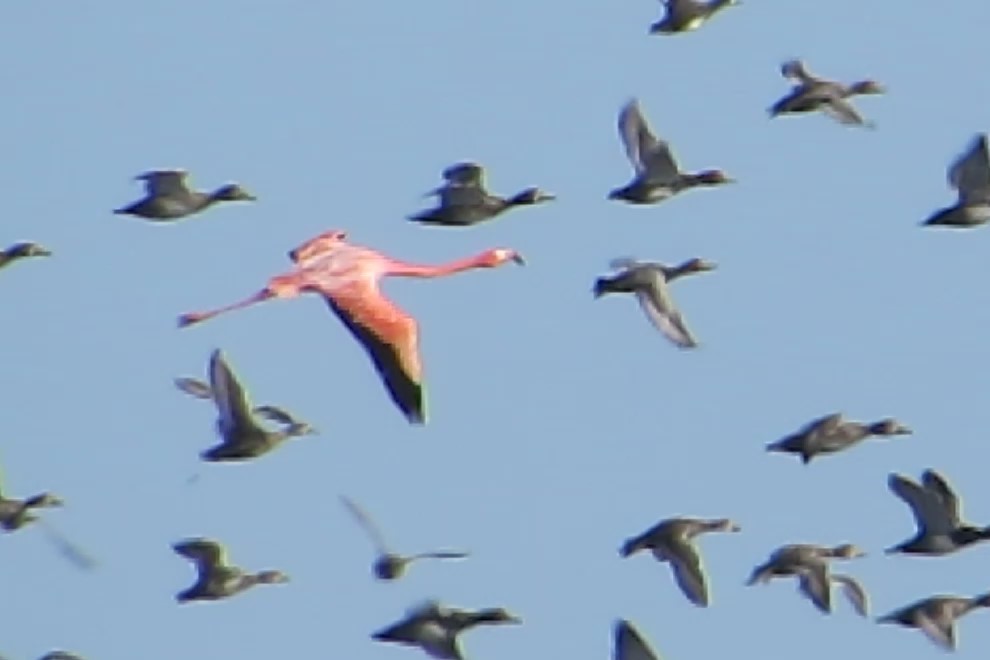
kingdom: Animalia
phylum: Chordata
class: Aves
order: Phoenicopteriformes
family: Phoenicopteridae
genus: Phoenicopterus
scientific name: Phoenicopterus ruber
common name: American flamingo
